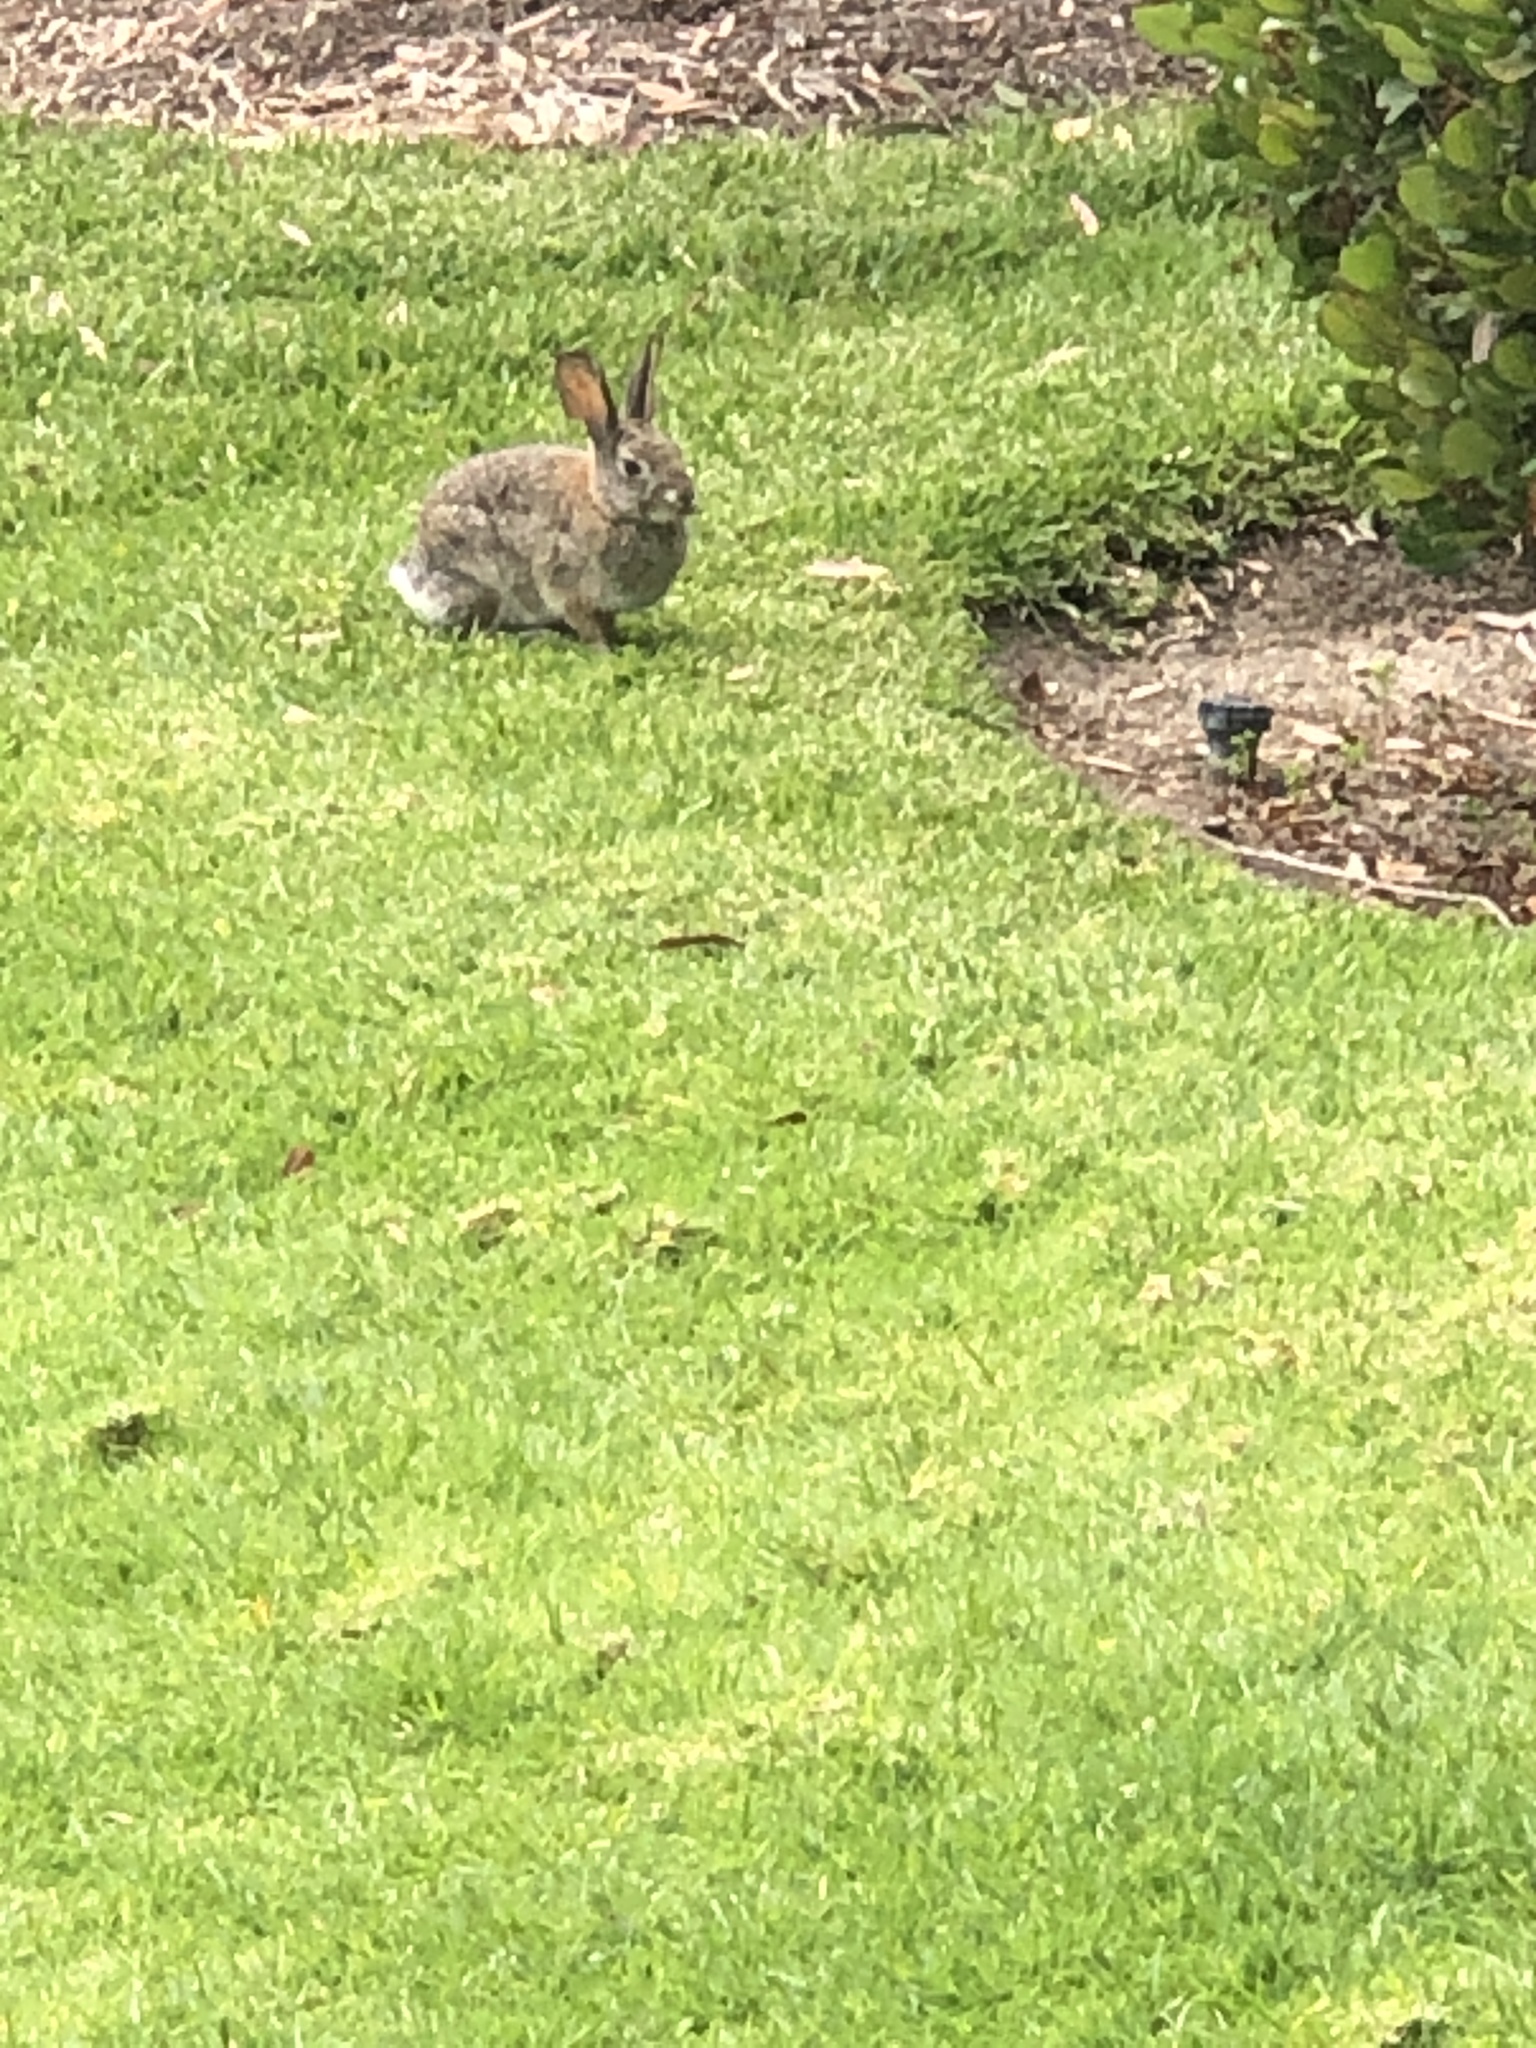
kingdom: Animalia
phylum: Chordata
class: Mammalia
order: Lagomorpha
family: Leporidae
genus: Sylvilagus
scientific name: Sylvilagus audubonii
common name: Desert cottontail
